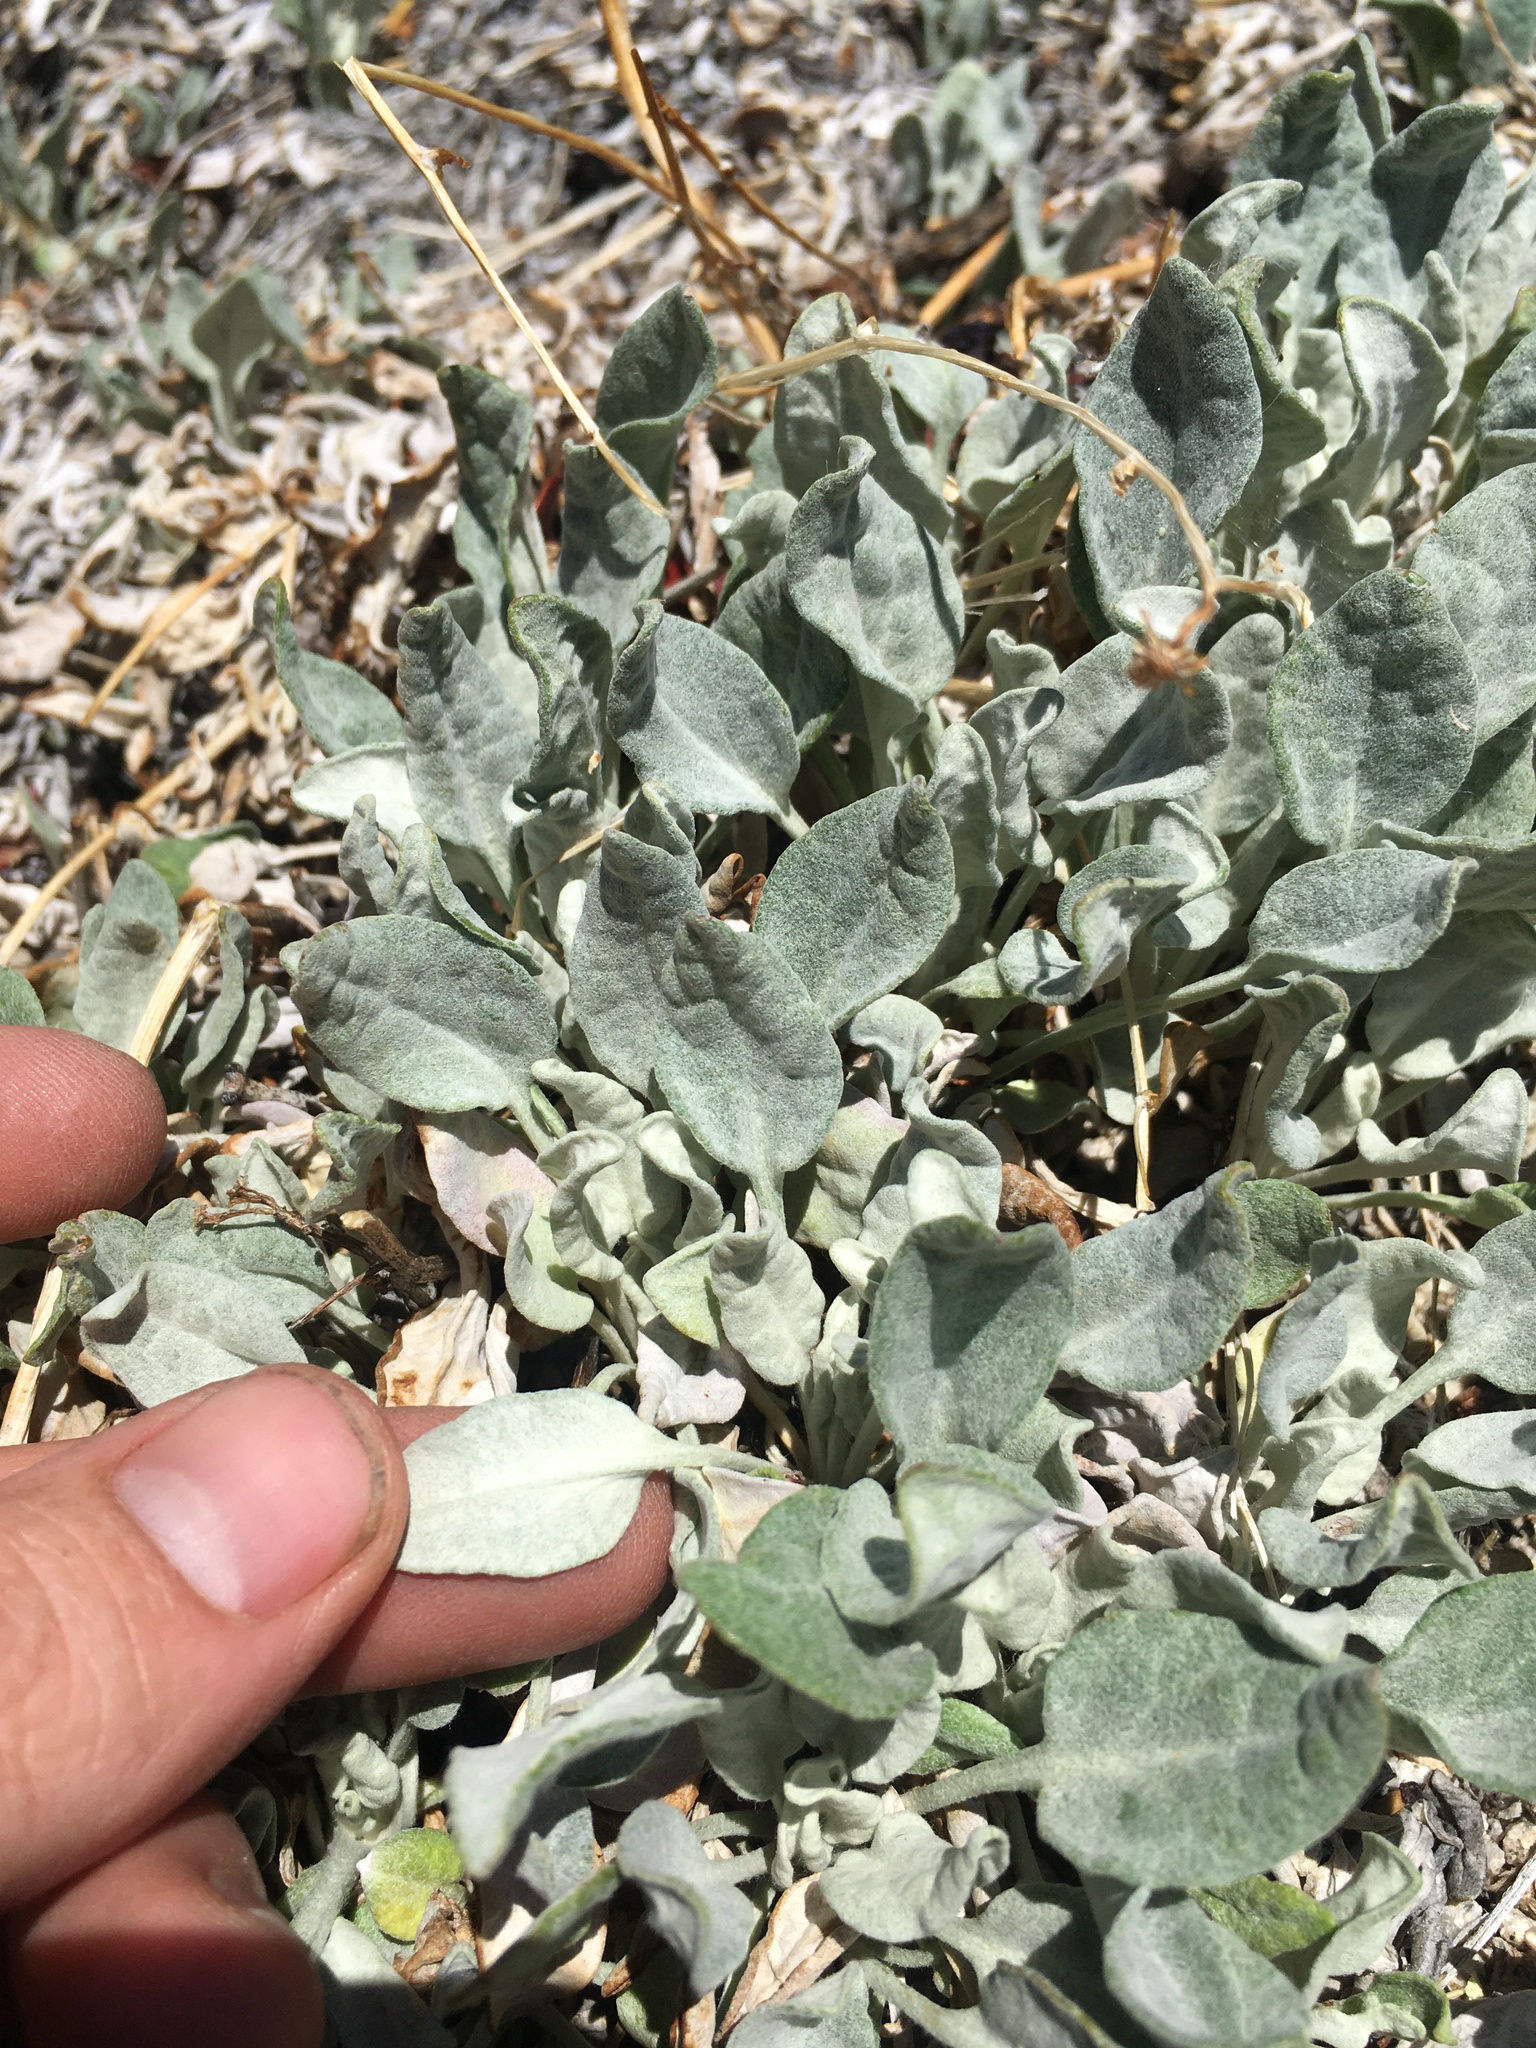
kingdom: Plantae
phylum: Tracheophyta
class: Magnoliopsida
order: Asterales
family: Asteraceae
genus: Packera
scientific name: Packera cana
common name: Woolly groundsel
